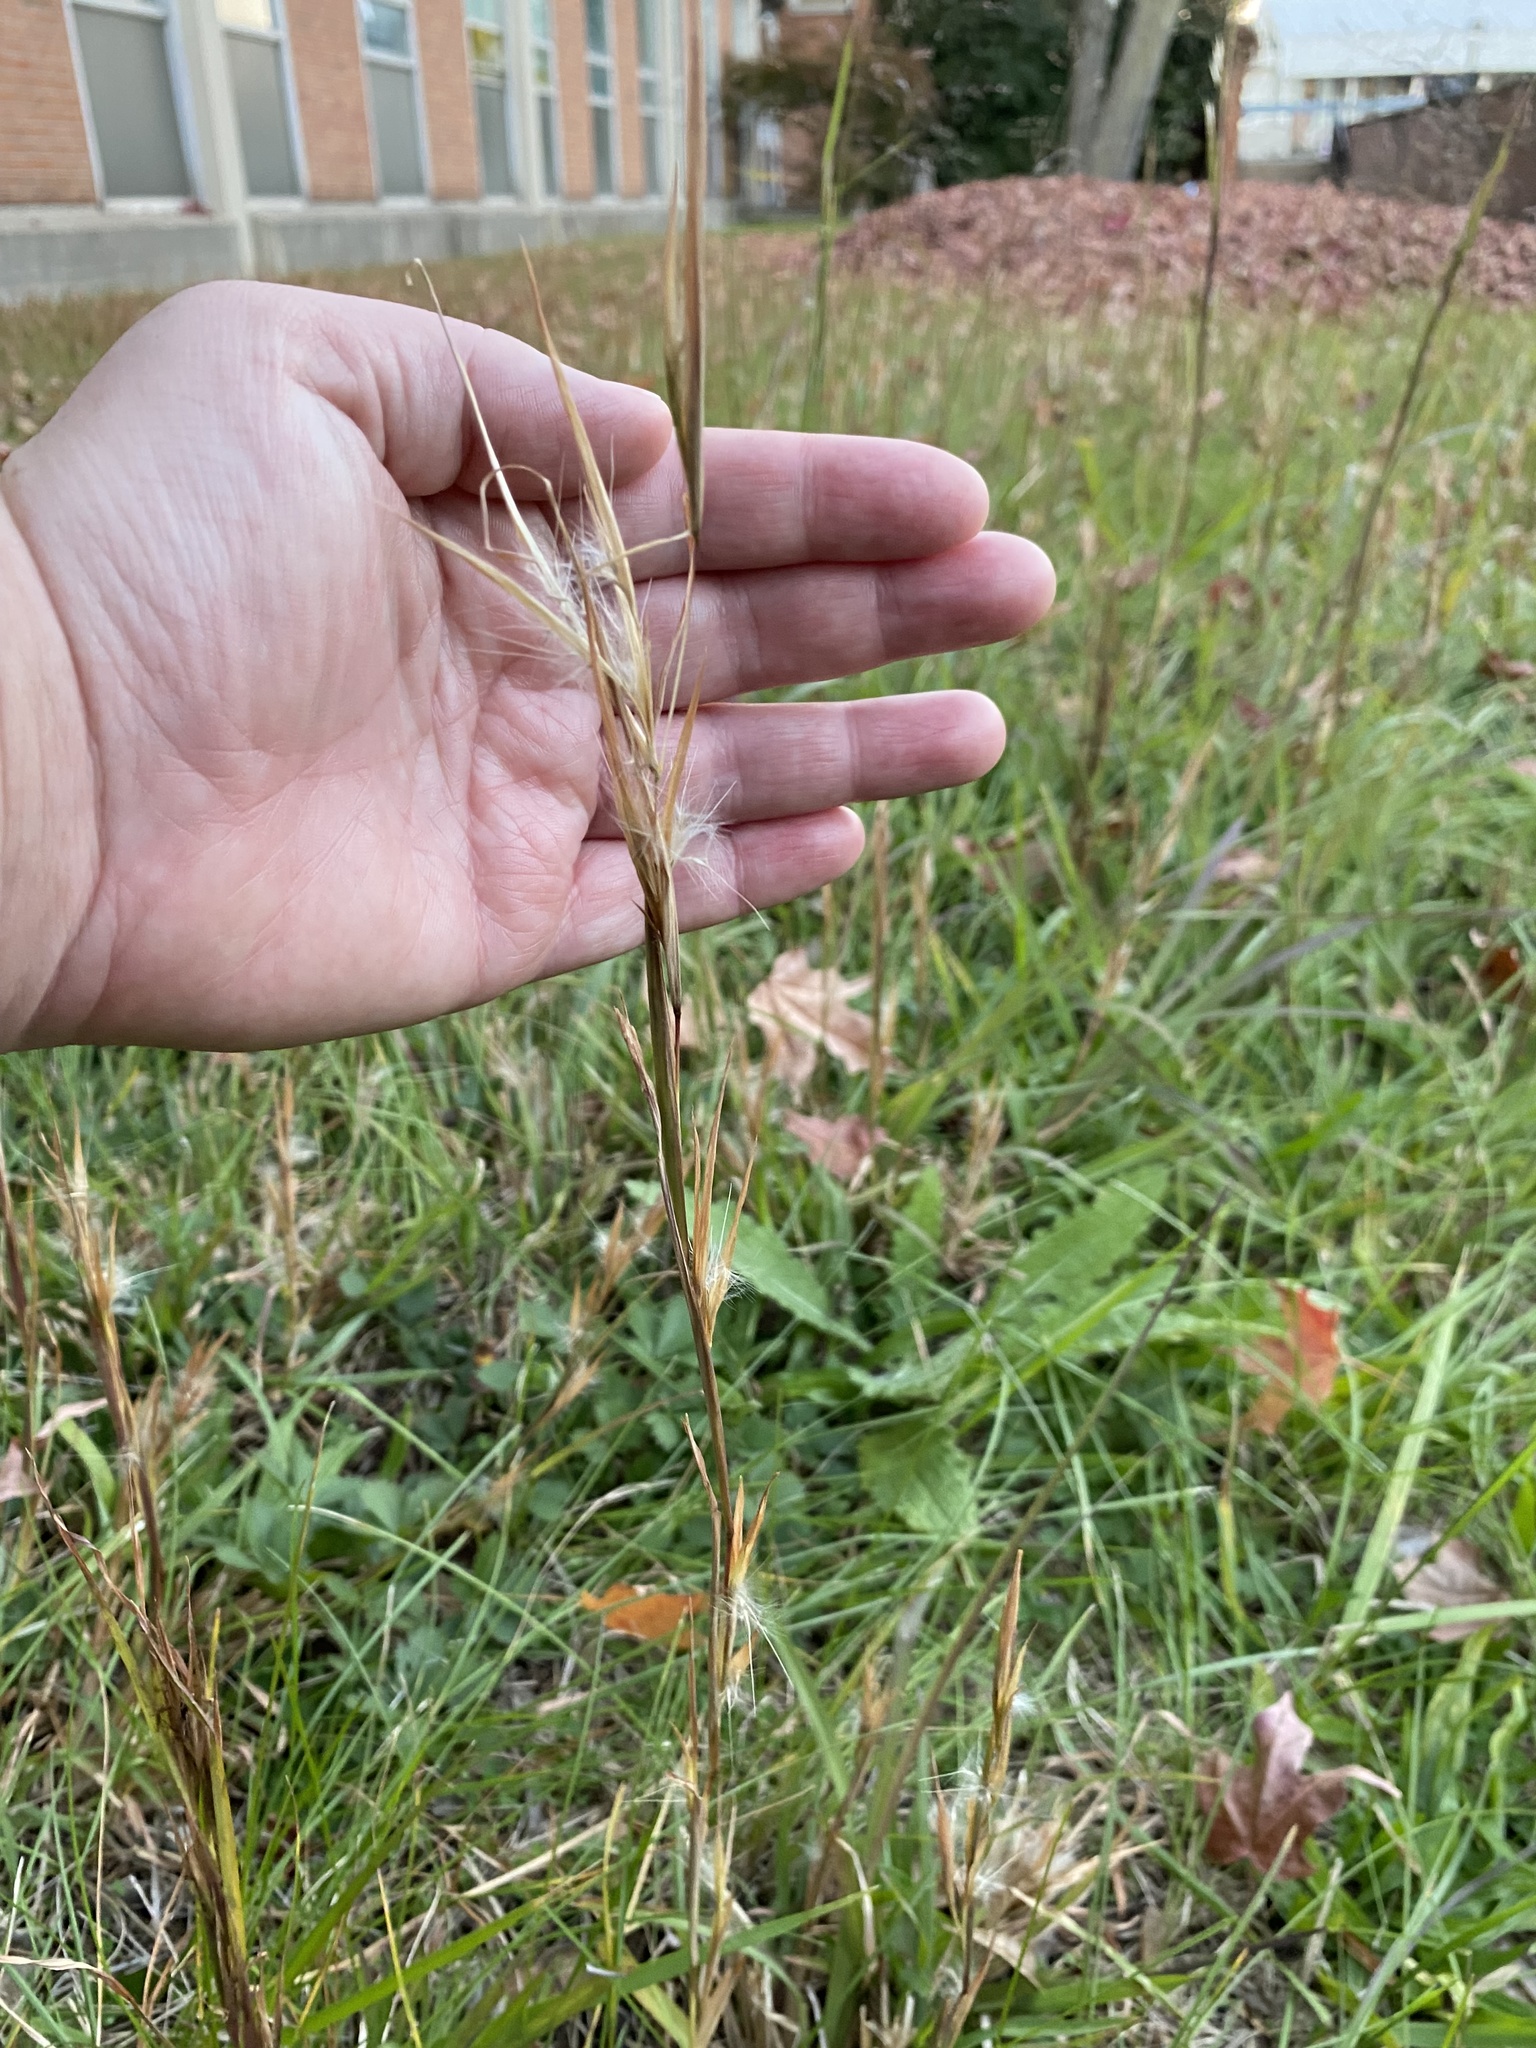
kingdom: Plantae
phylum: Tracheophyta
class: Liliopsida
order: Poales
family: Poaceae
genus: Andropogon
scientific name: Andropogon virginicus
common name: Broomsedge bluestem
